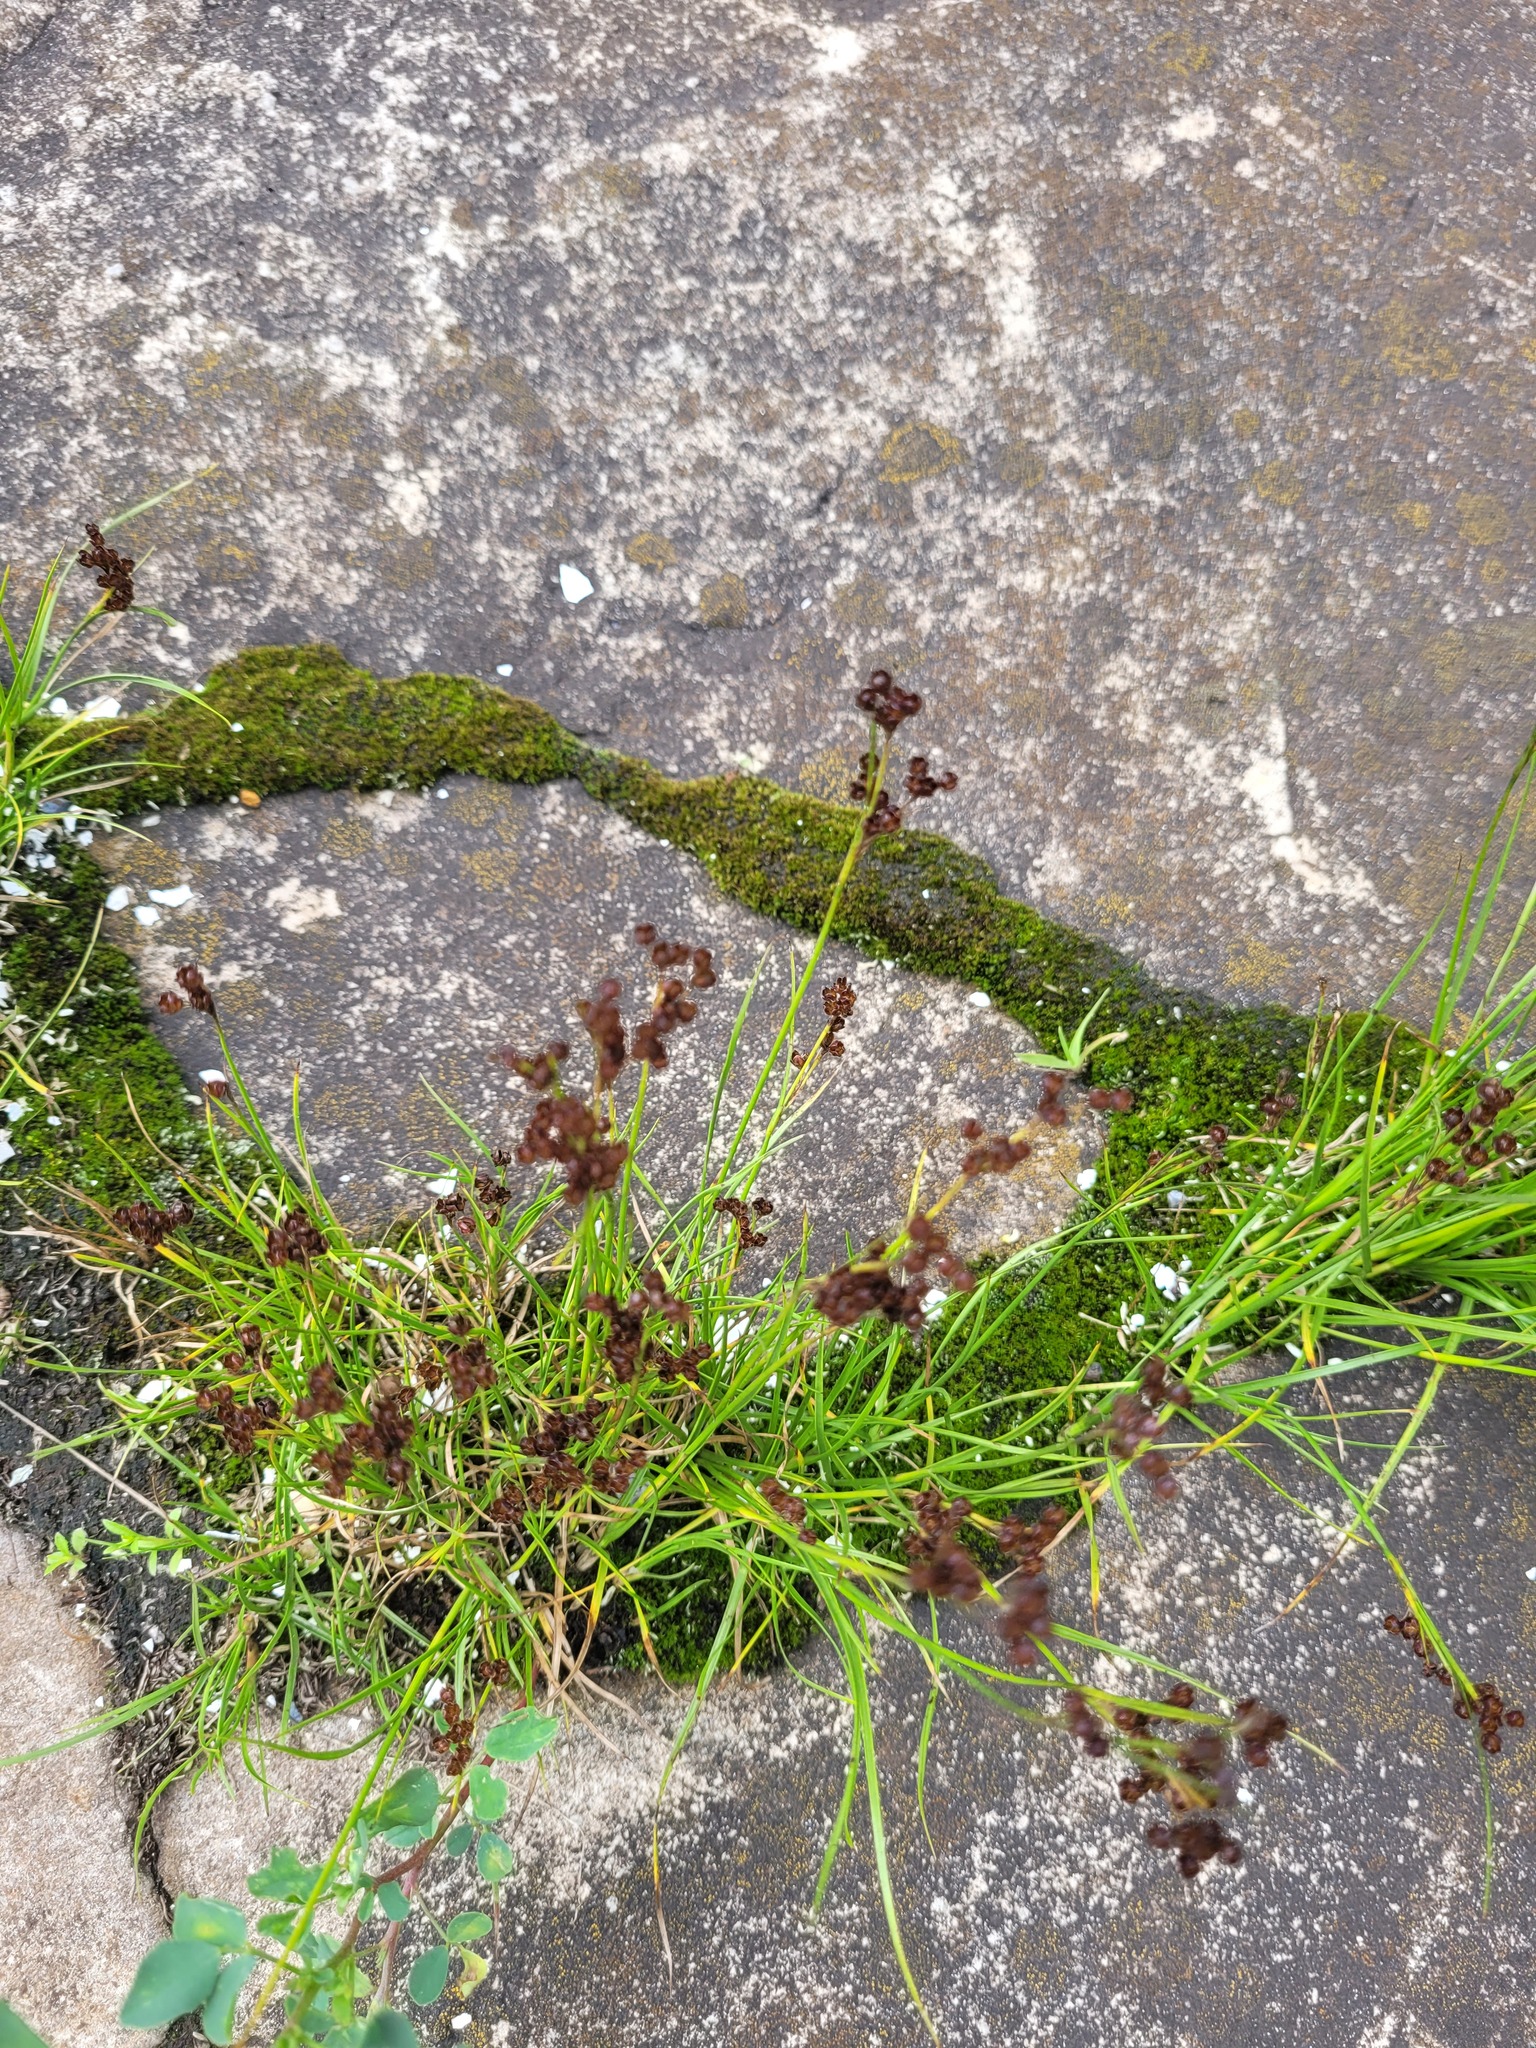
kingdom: Plantae
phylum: Tracheophyta
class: Liliopsida
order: Poales
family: Juncaceae
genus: Juncus
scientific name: Juncus compressus
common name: Round-fruited rush
